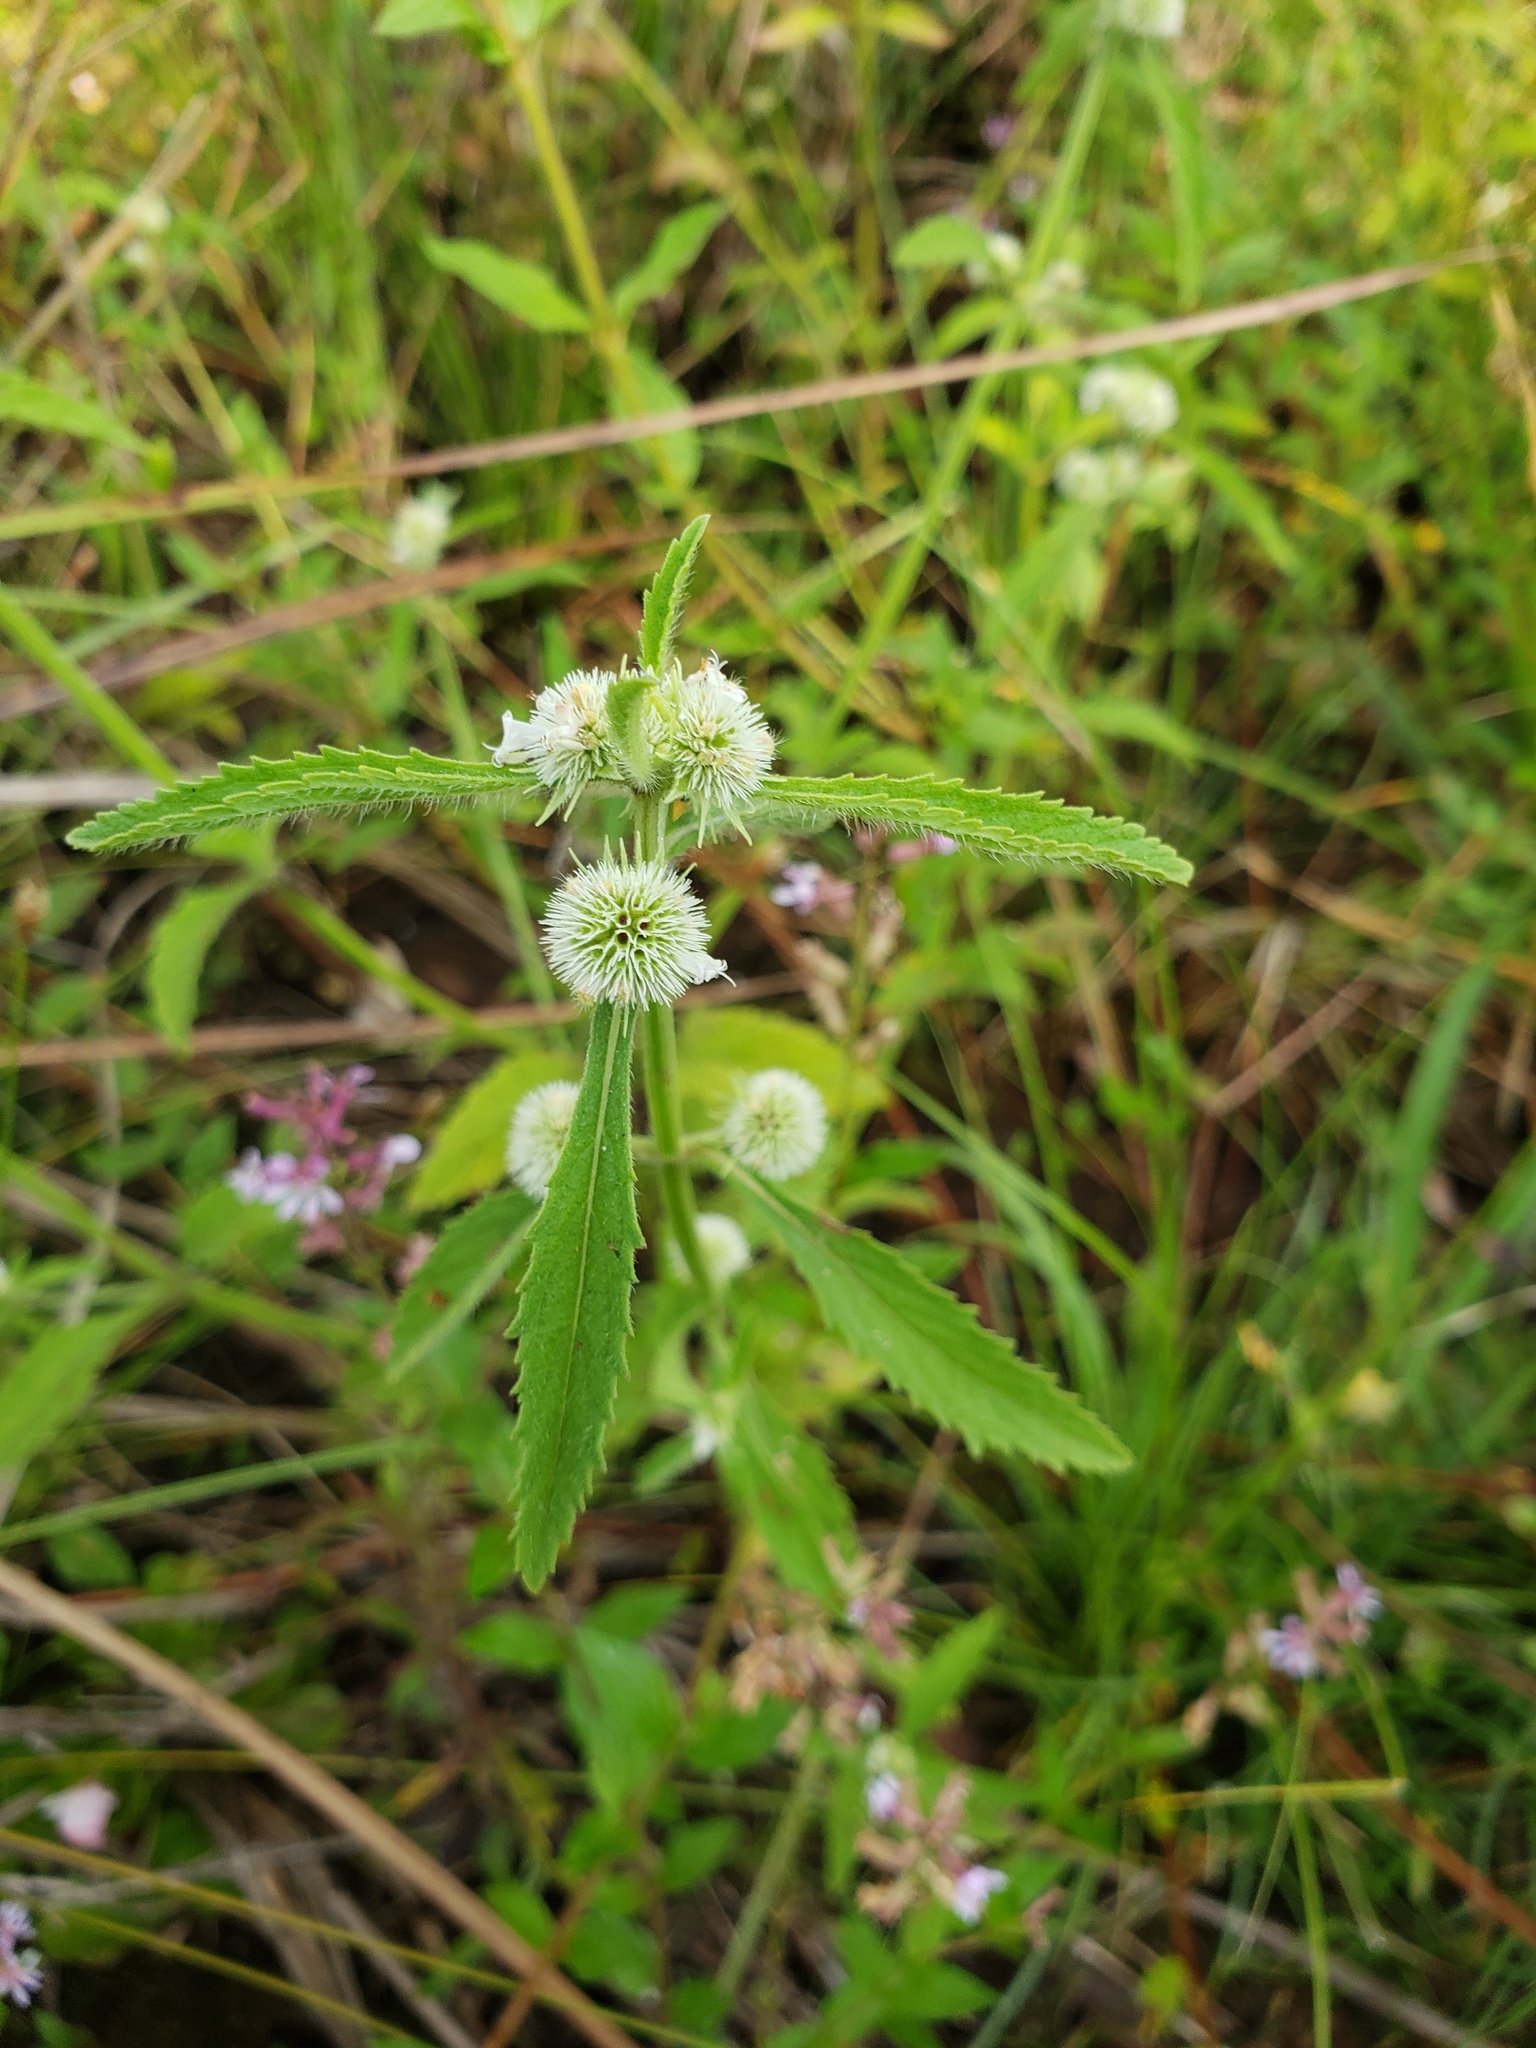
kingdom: Plantae
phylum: Tracheophyta
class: Magnoliopsida
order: Lamiales
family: Lamiaceae
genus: Hyptis
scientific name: Hyptis lappacea
